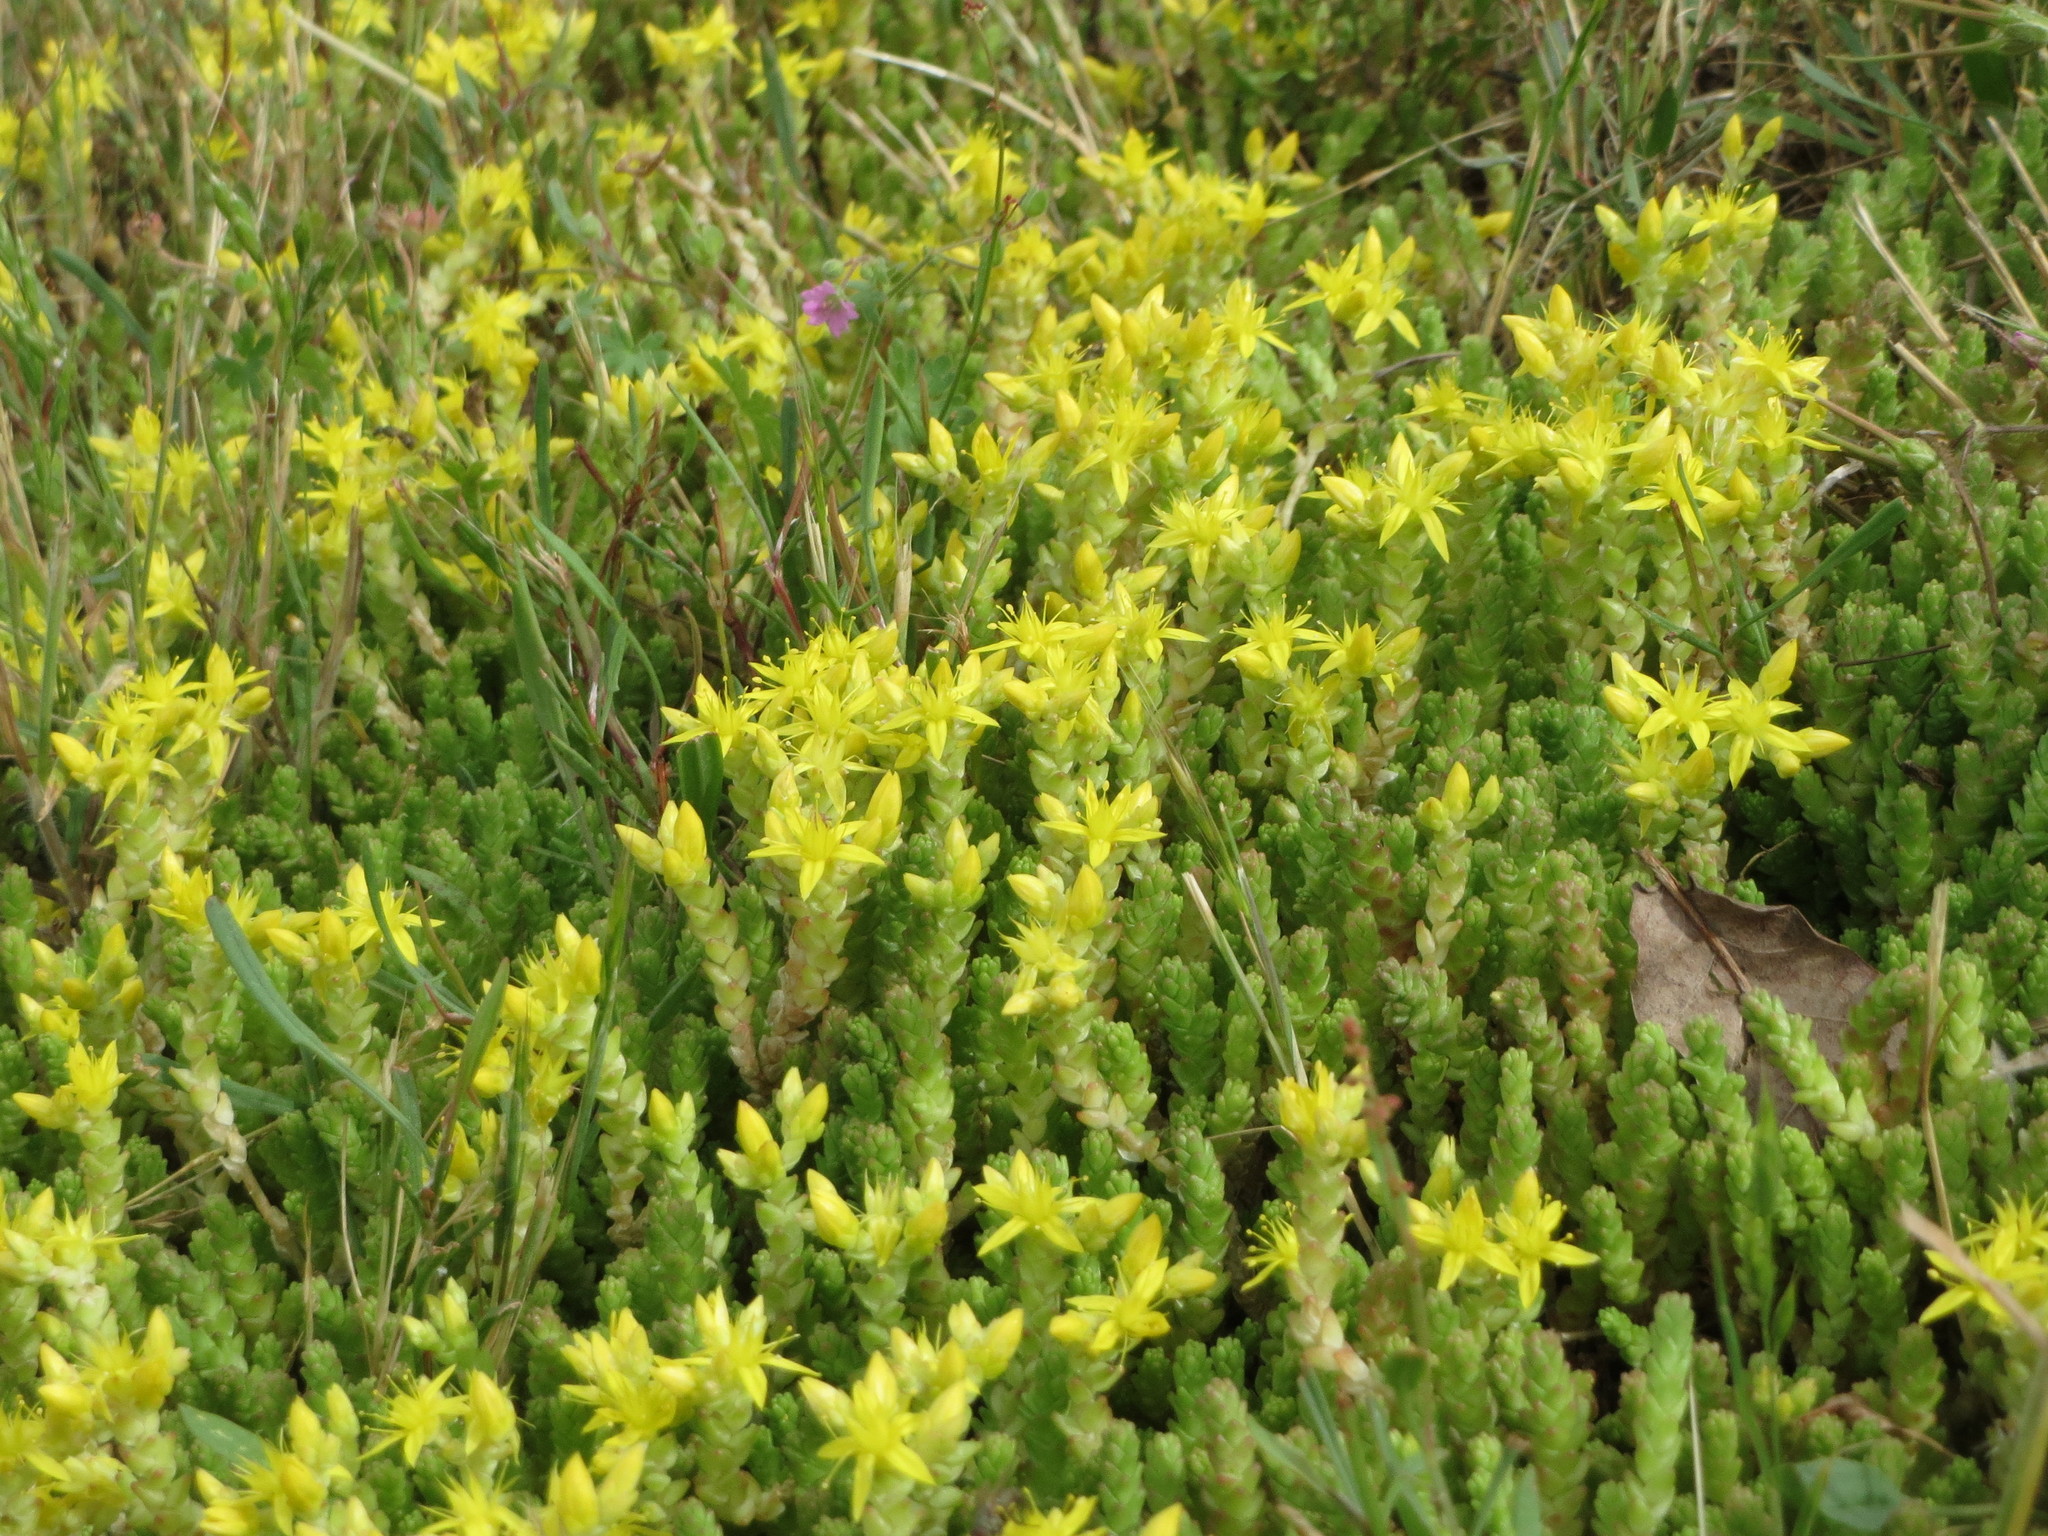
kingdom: Plantae
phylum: Tracheophyta
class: Magnoliopsida
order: Saxifragales
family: Crassulaceae
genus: Sedum
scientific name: Sedum acre
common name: Biting stonecrop
